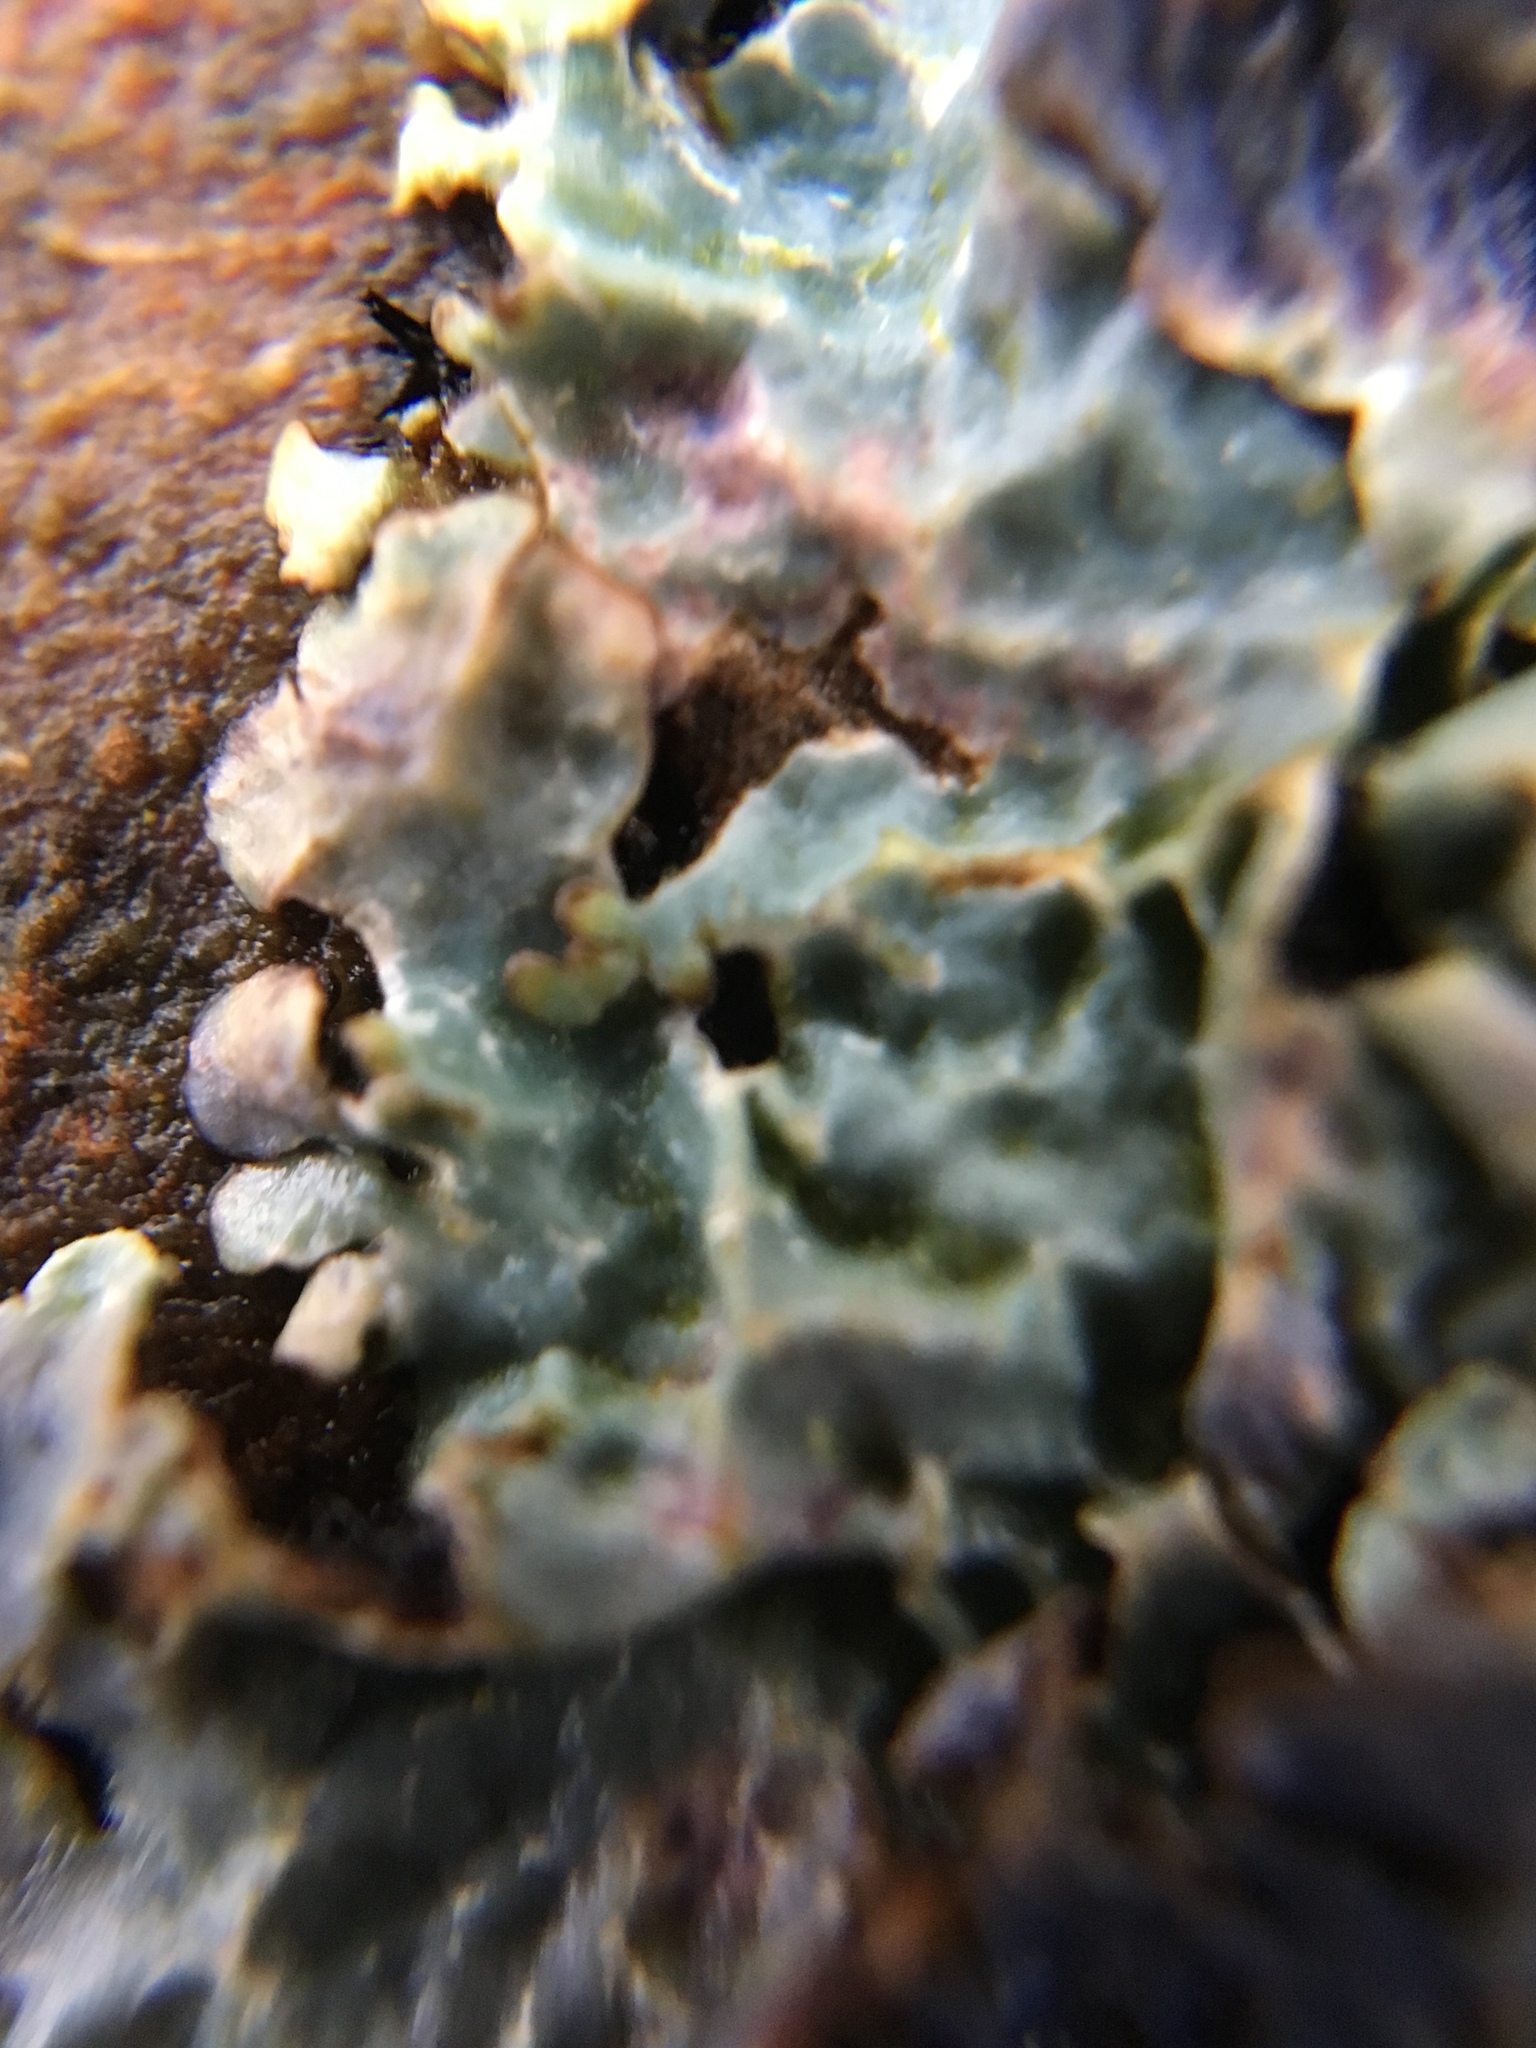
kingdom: Fungi
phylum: Ascomycota
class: Lecanoromycetes
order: Lecanorales
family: Parmeliaceae
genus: Parmelia
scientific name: Parmelia sulcata
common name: Netted shield lichen
